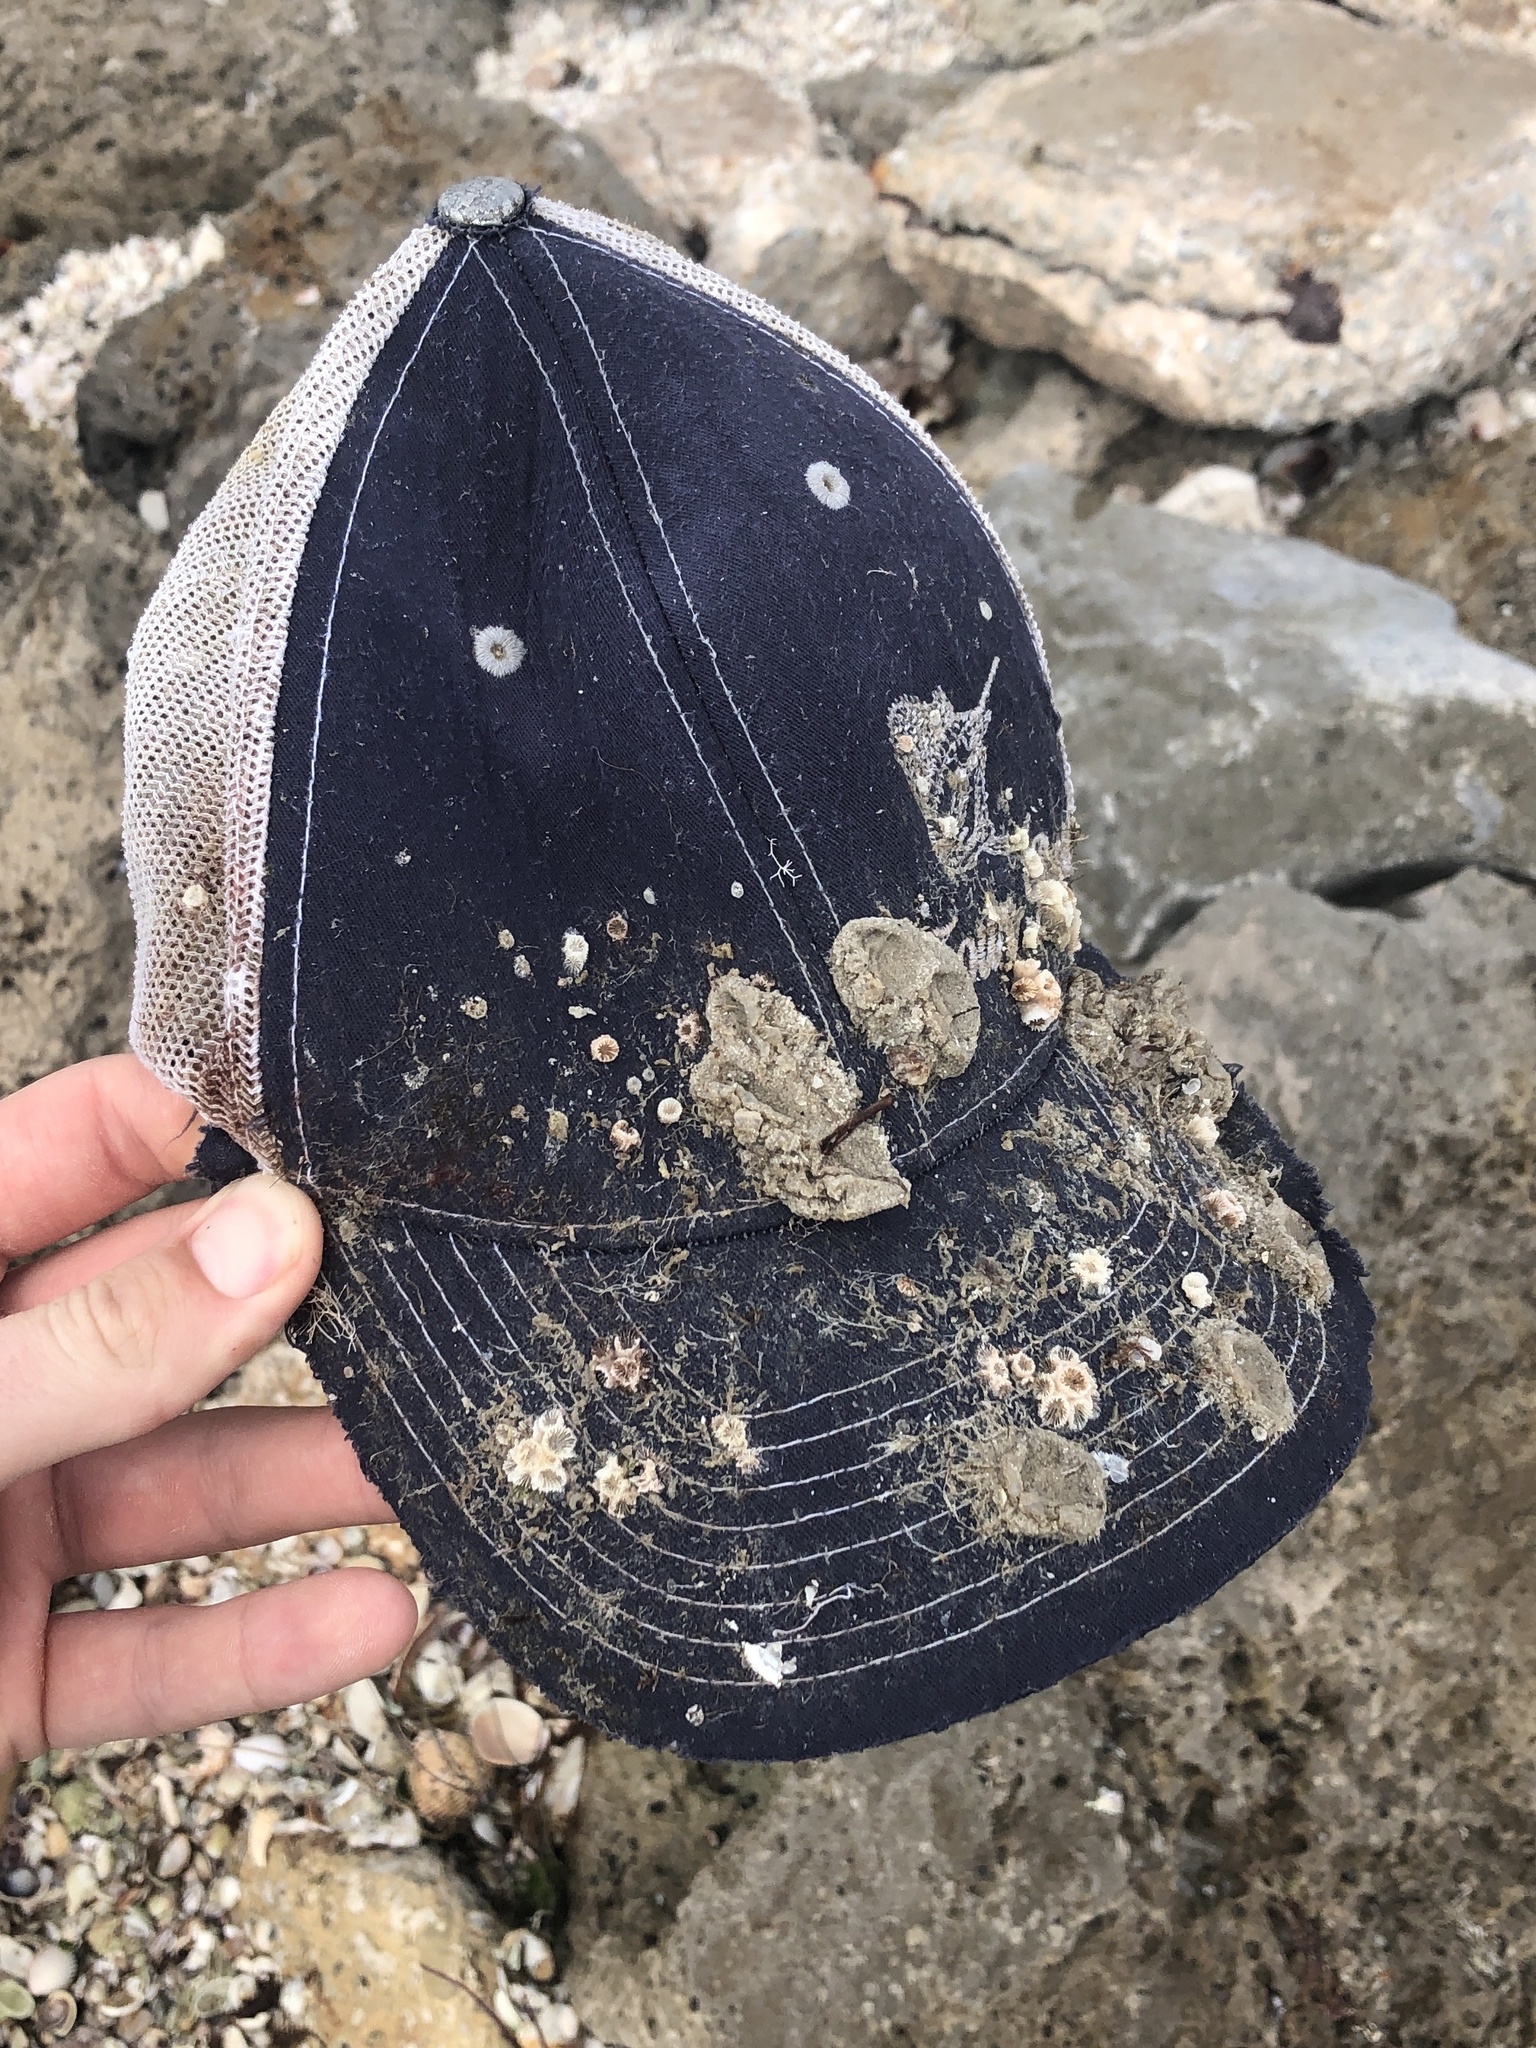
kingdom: Animalia
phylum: Cnidaria
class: Anthozoa
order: Scleractinia
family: Astrangiidae
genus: Astrangia
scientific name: Astrangia poculata
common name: Northern star coral
